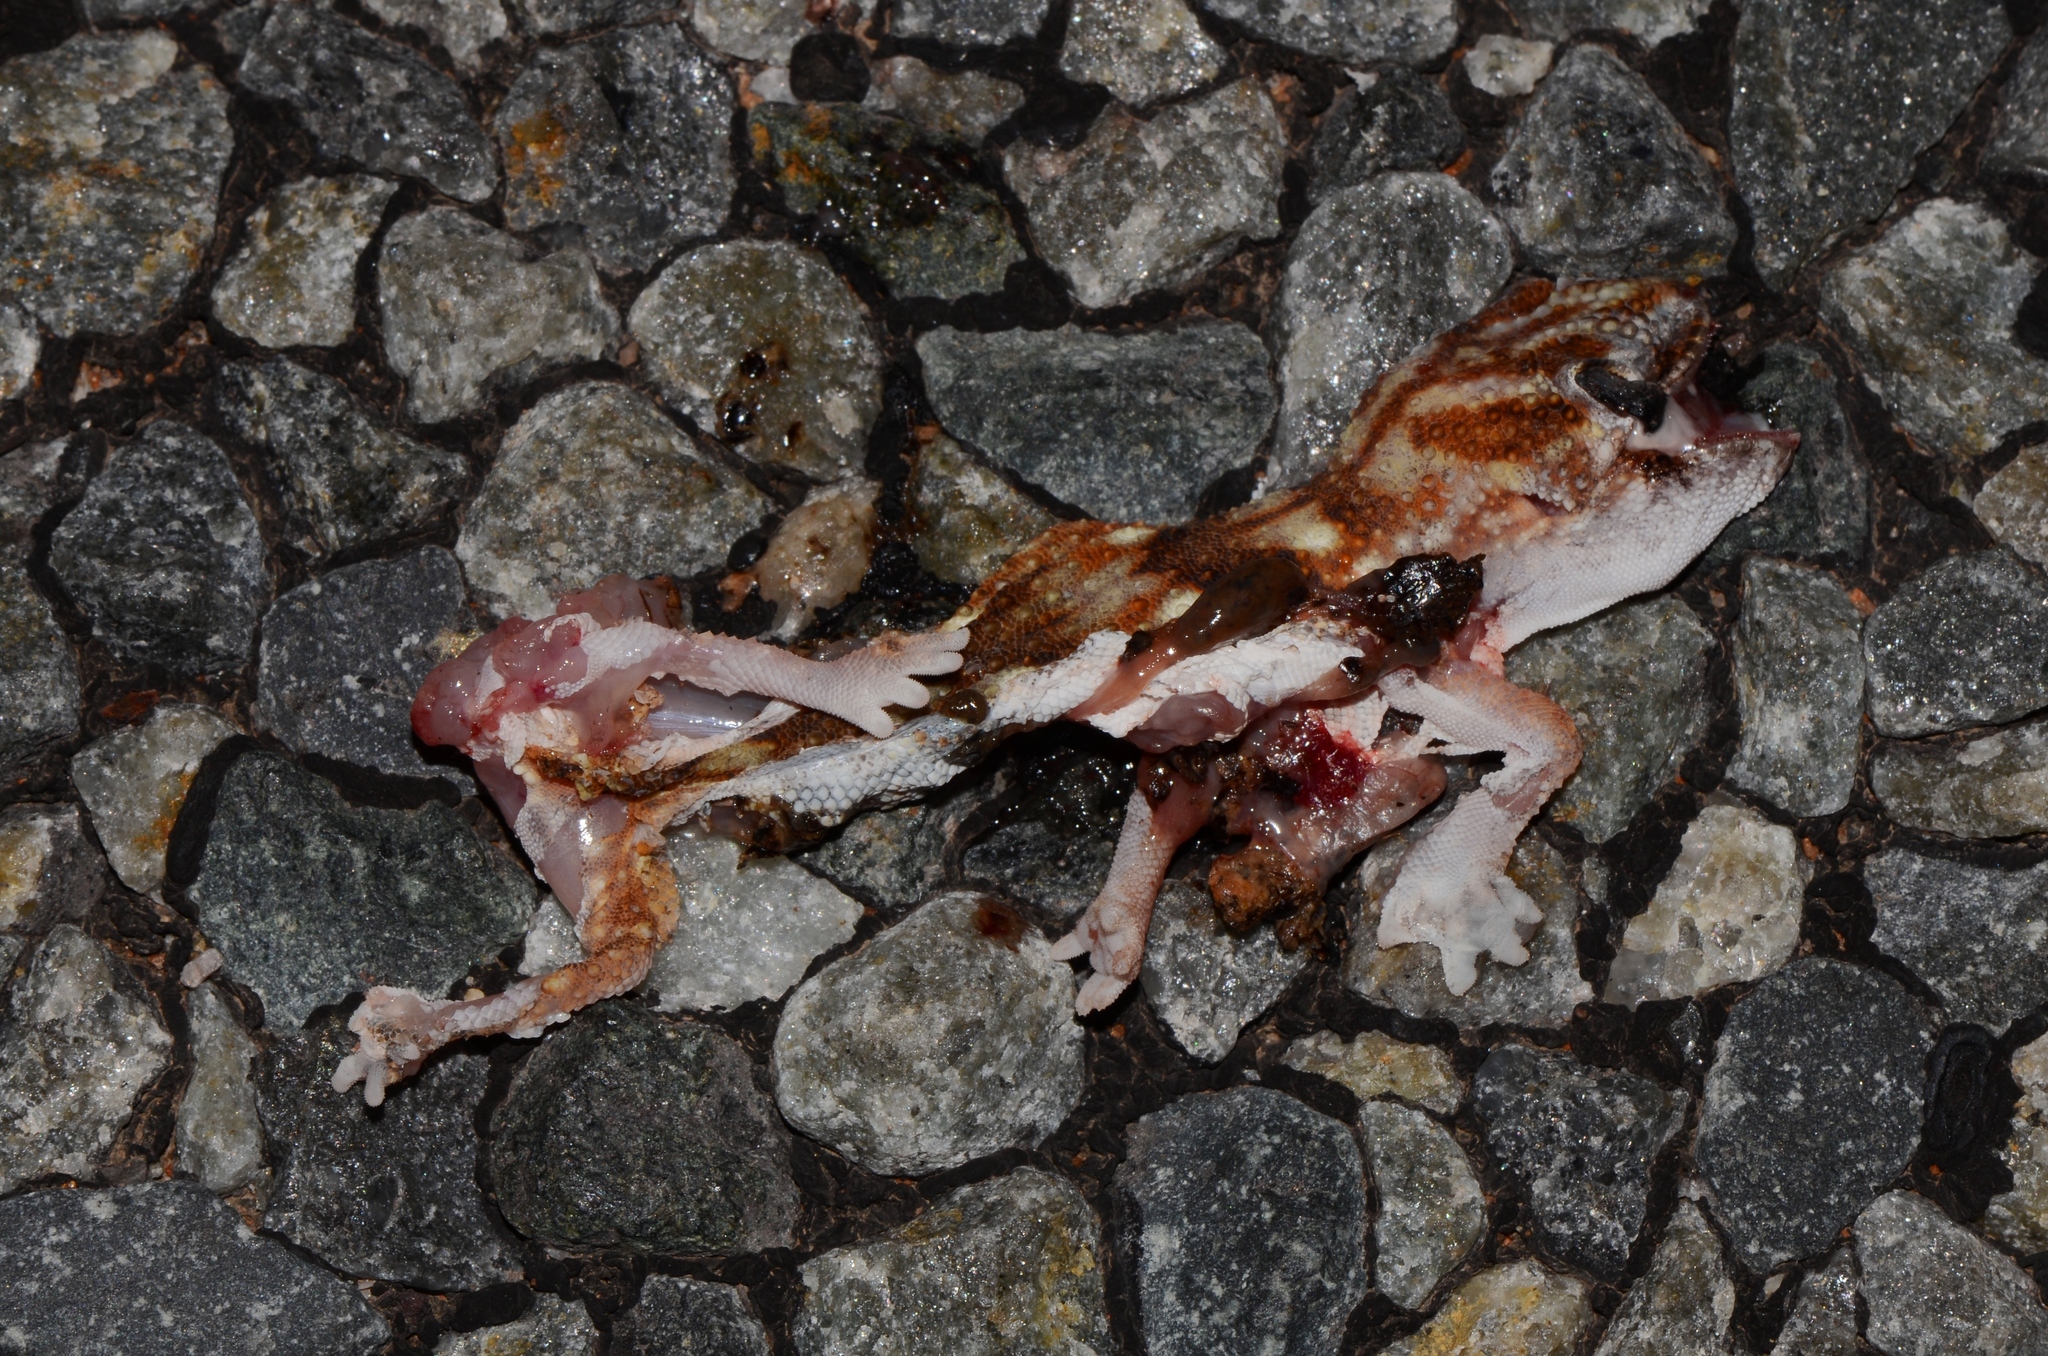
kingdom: Animalia
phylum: Chordata
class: Squamata
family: Gekkonidae
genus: Chondrodactylus
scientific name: Chondrodactylus angulifer
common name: Common giant ground gecko
